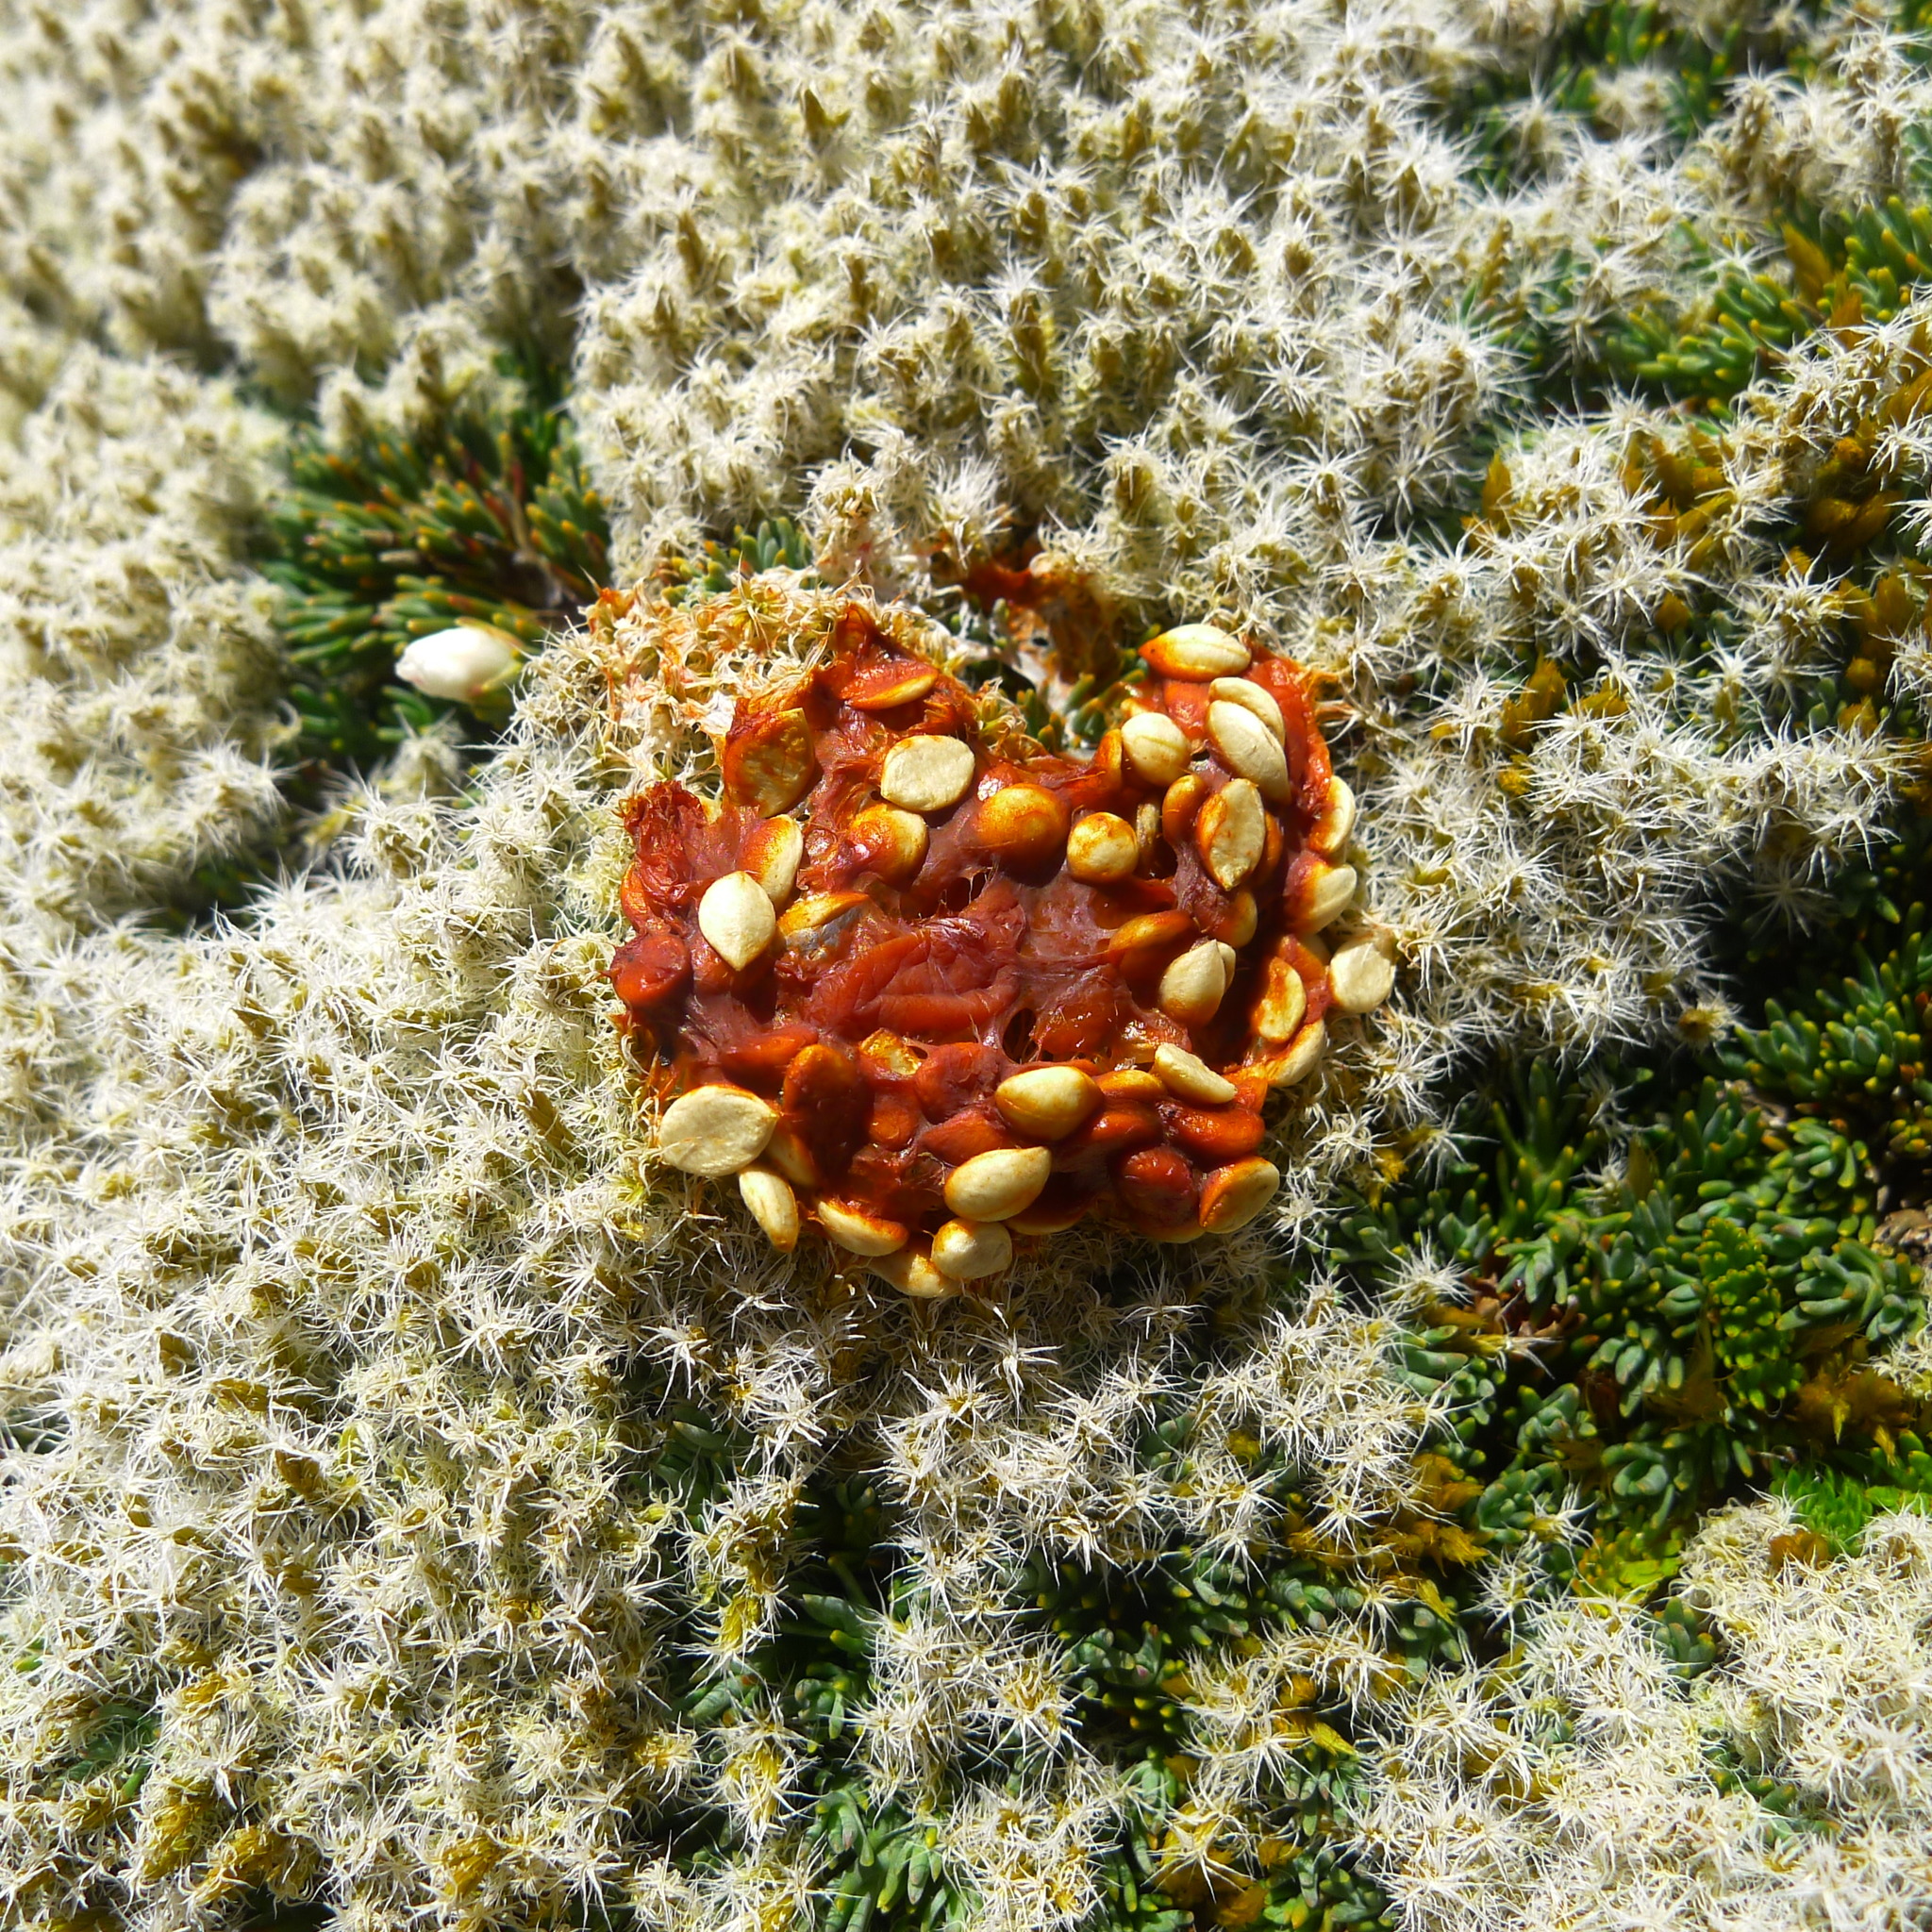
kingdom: Animalia
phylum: Chordata
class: Aves
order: Psittaciformes
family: Psittacidae
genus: Nestor
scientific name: Nestor notabilis
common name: Kea
